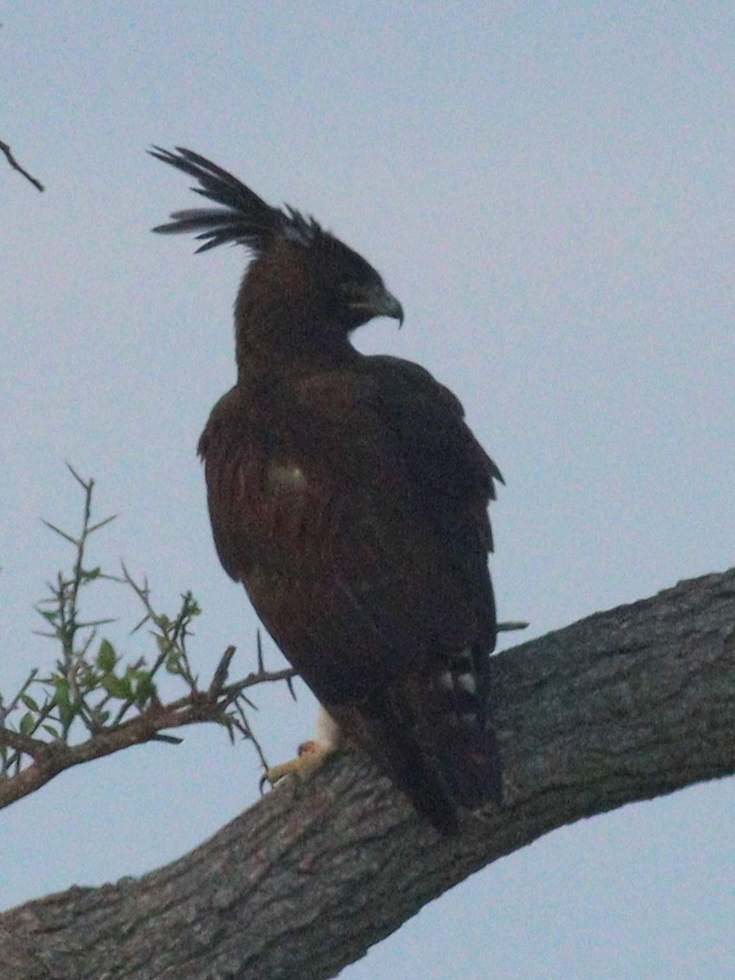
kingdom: Animalia
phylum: Chordata
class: Aves
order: Accipitriformes
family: Accipitridae
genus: Lophaetus
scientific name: Lophaetus occipitalis
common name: Long-crested eagle
